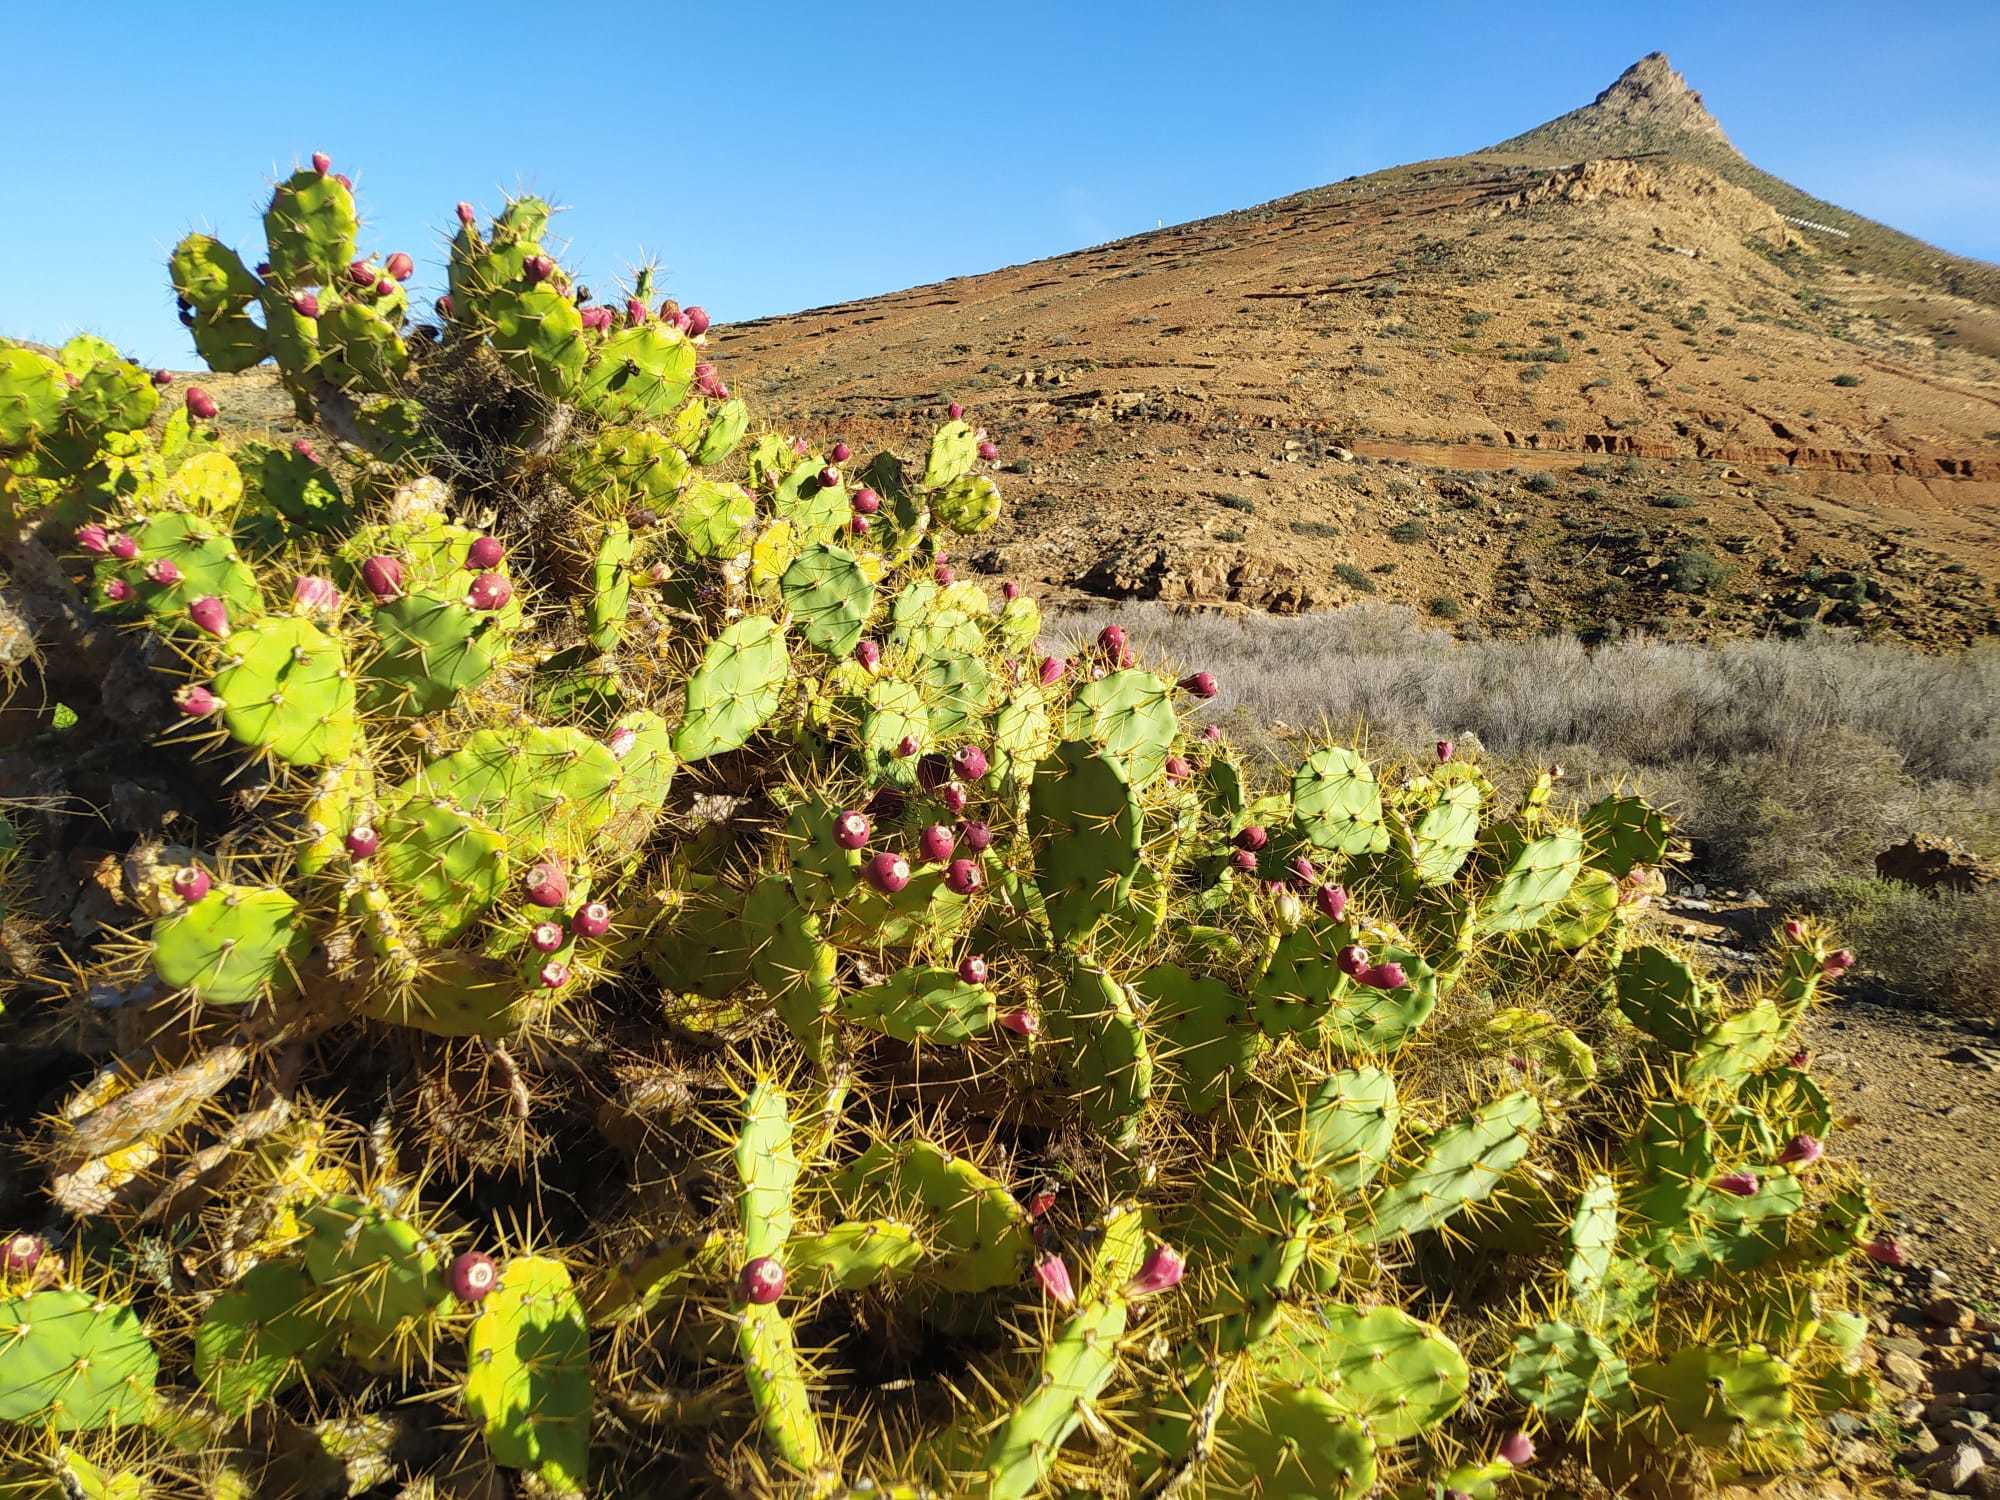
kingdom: Plantae
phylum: Tracheophyta
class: Magnoliopsida
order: Caryophyllales
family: Cactaceae
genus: Opuntia
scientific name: Opuntia stricta
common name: Erect pricklypear
